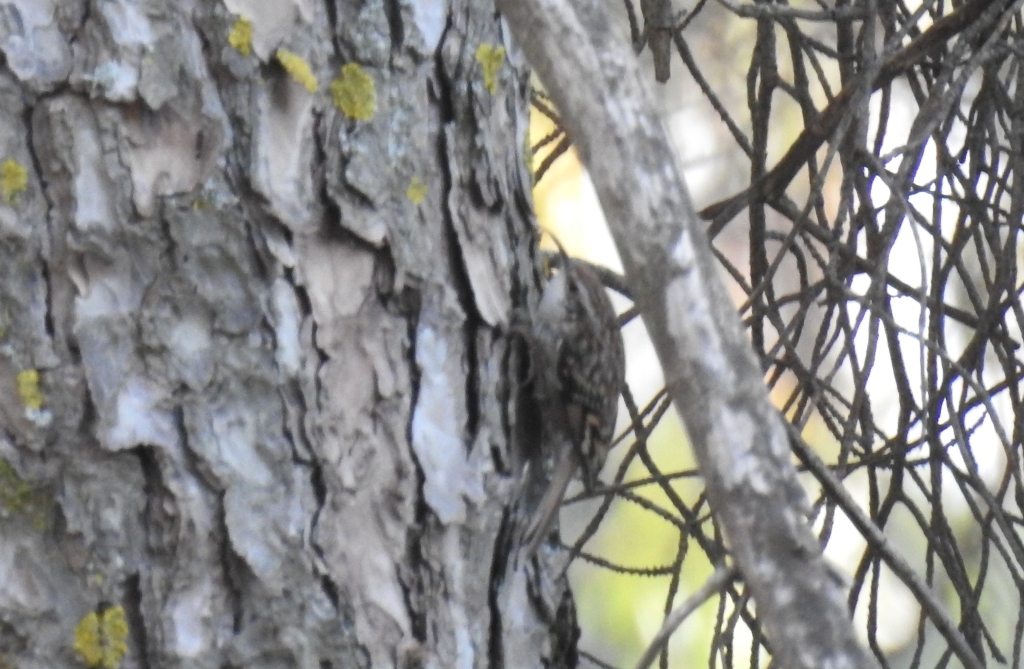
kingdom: Animalia
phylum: Chordata
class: Aves
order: Passeriformes
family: Certhiidae
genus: Certhia
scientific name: Certhia brachydactyla
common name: Short-toed treecreeper
